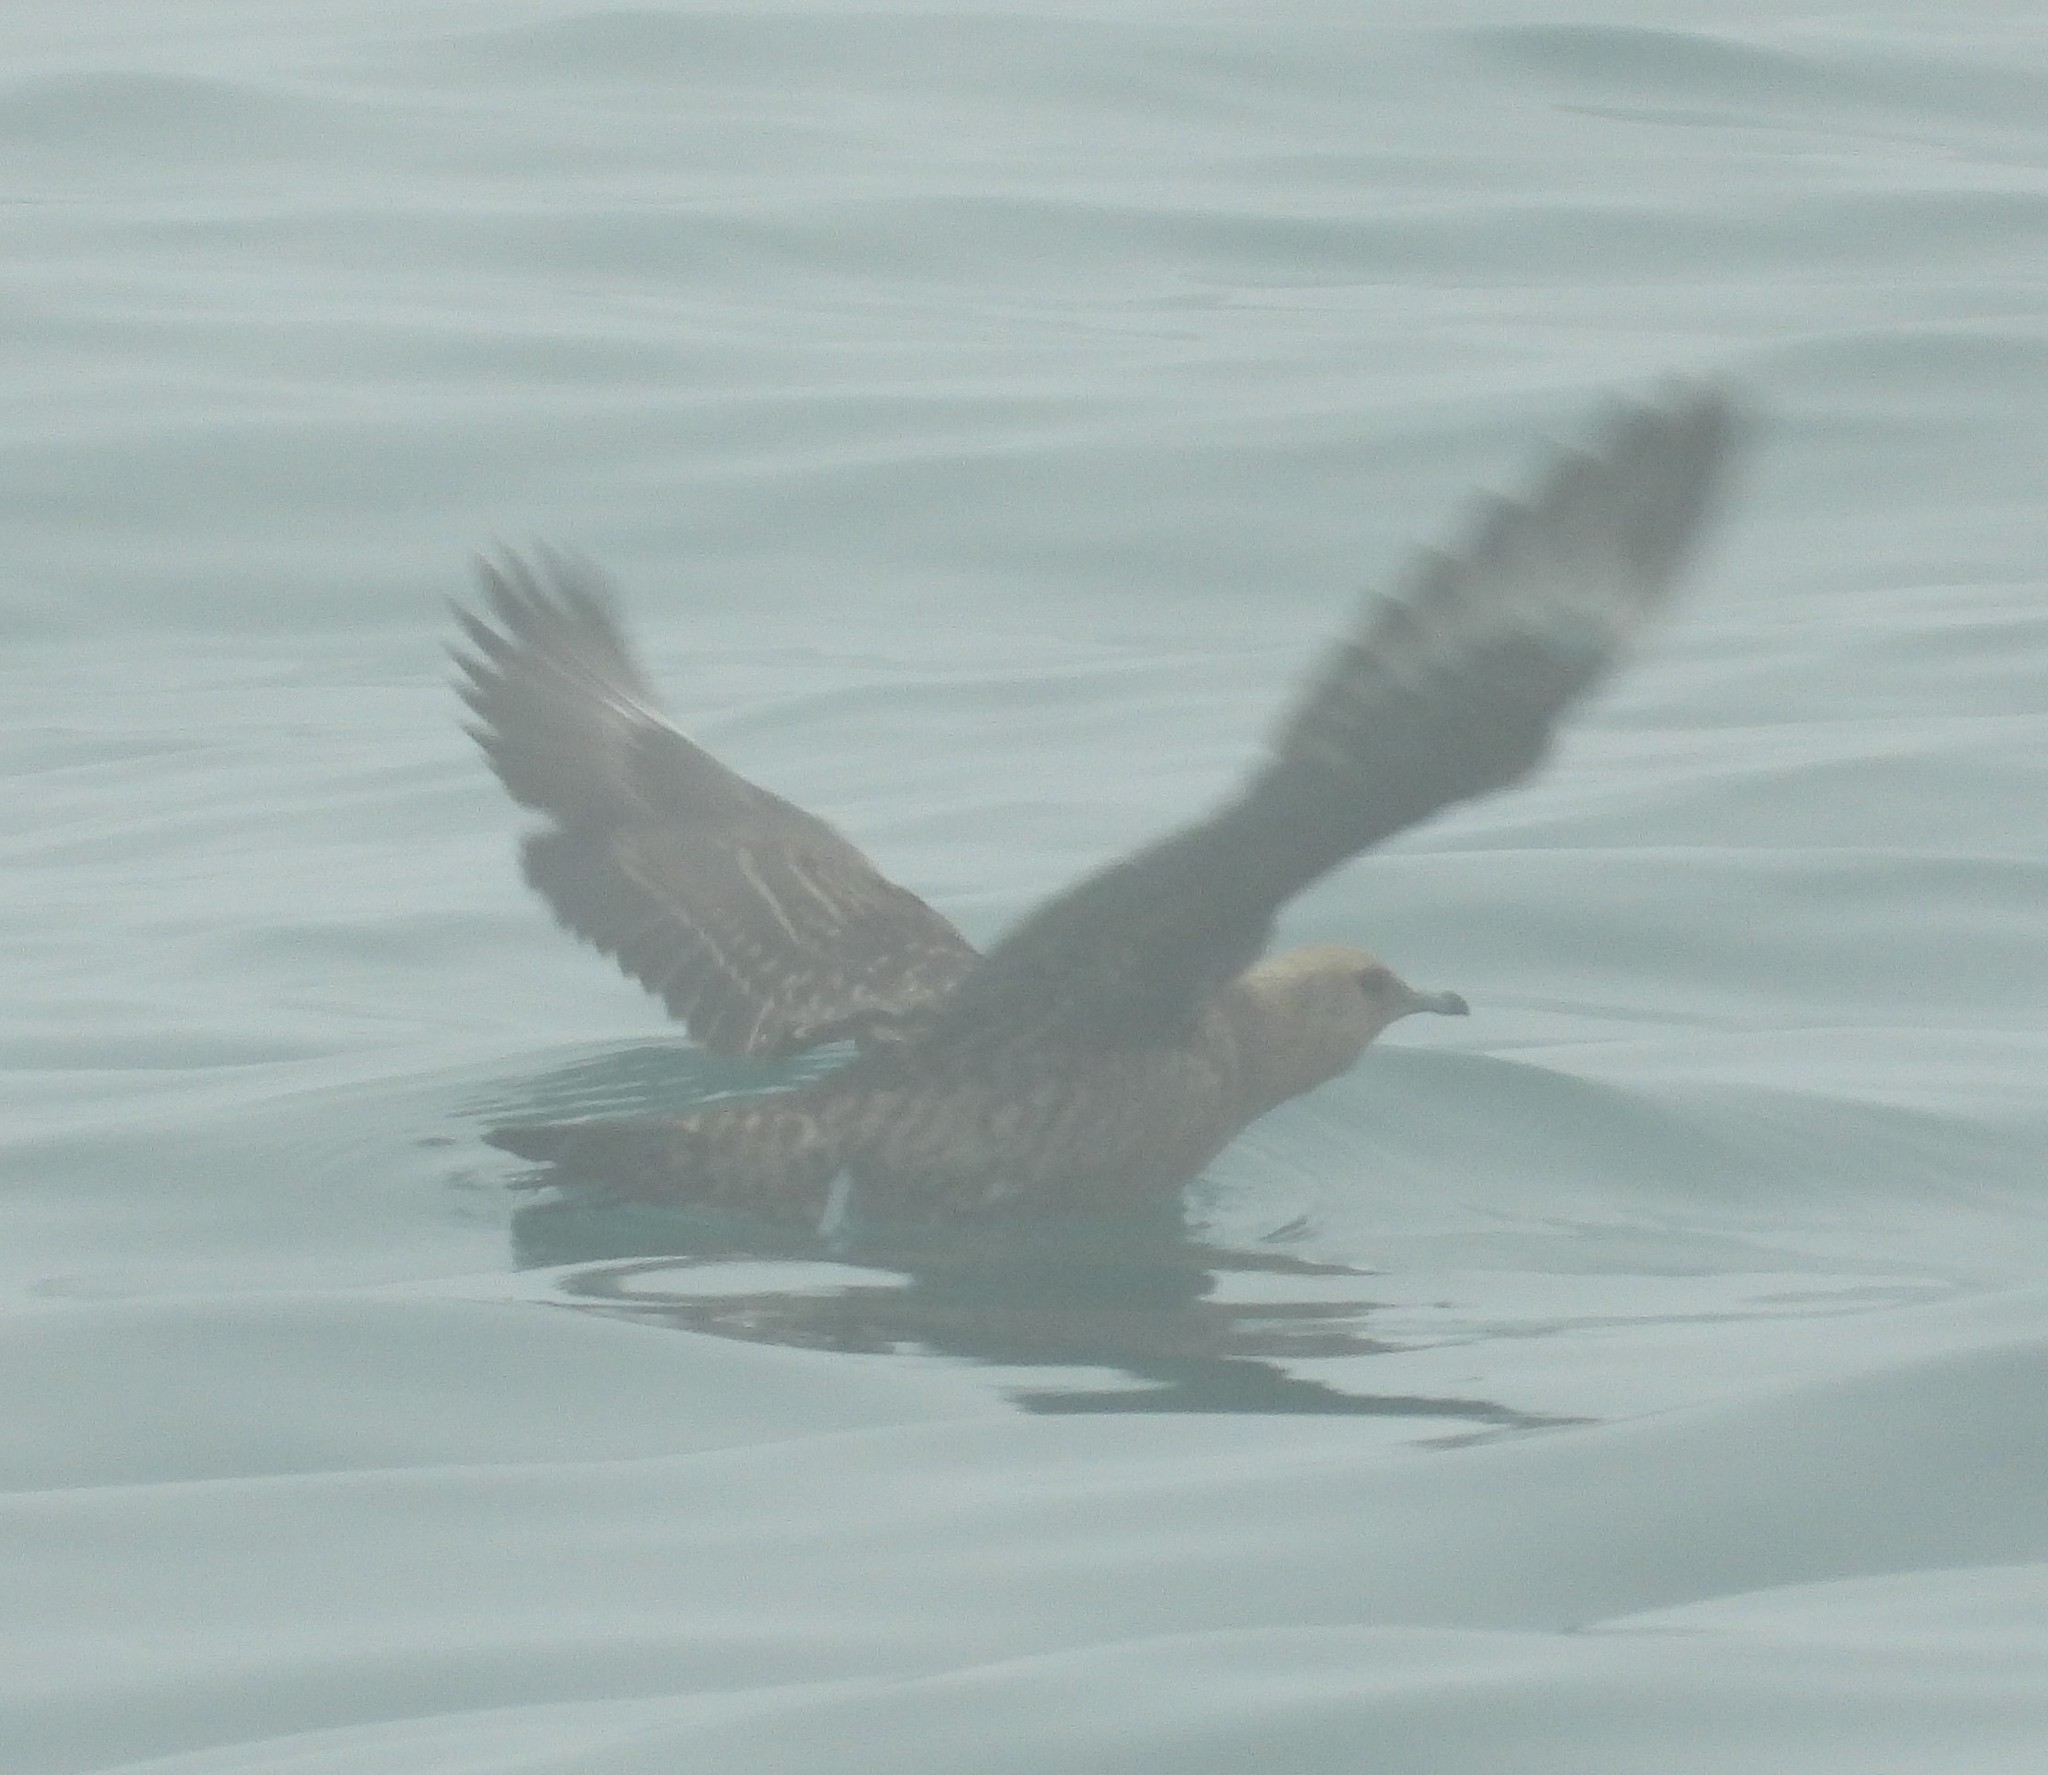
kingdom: Animalia
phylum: Chordata
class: Aves
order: Charadriiformes
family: Stercorariidae
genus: Stercorarius
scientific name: Stercorarius parasiticus
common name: Parasitic jaeger
